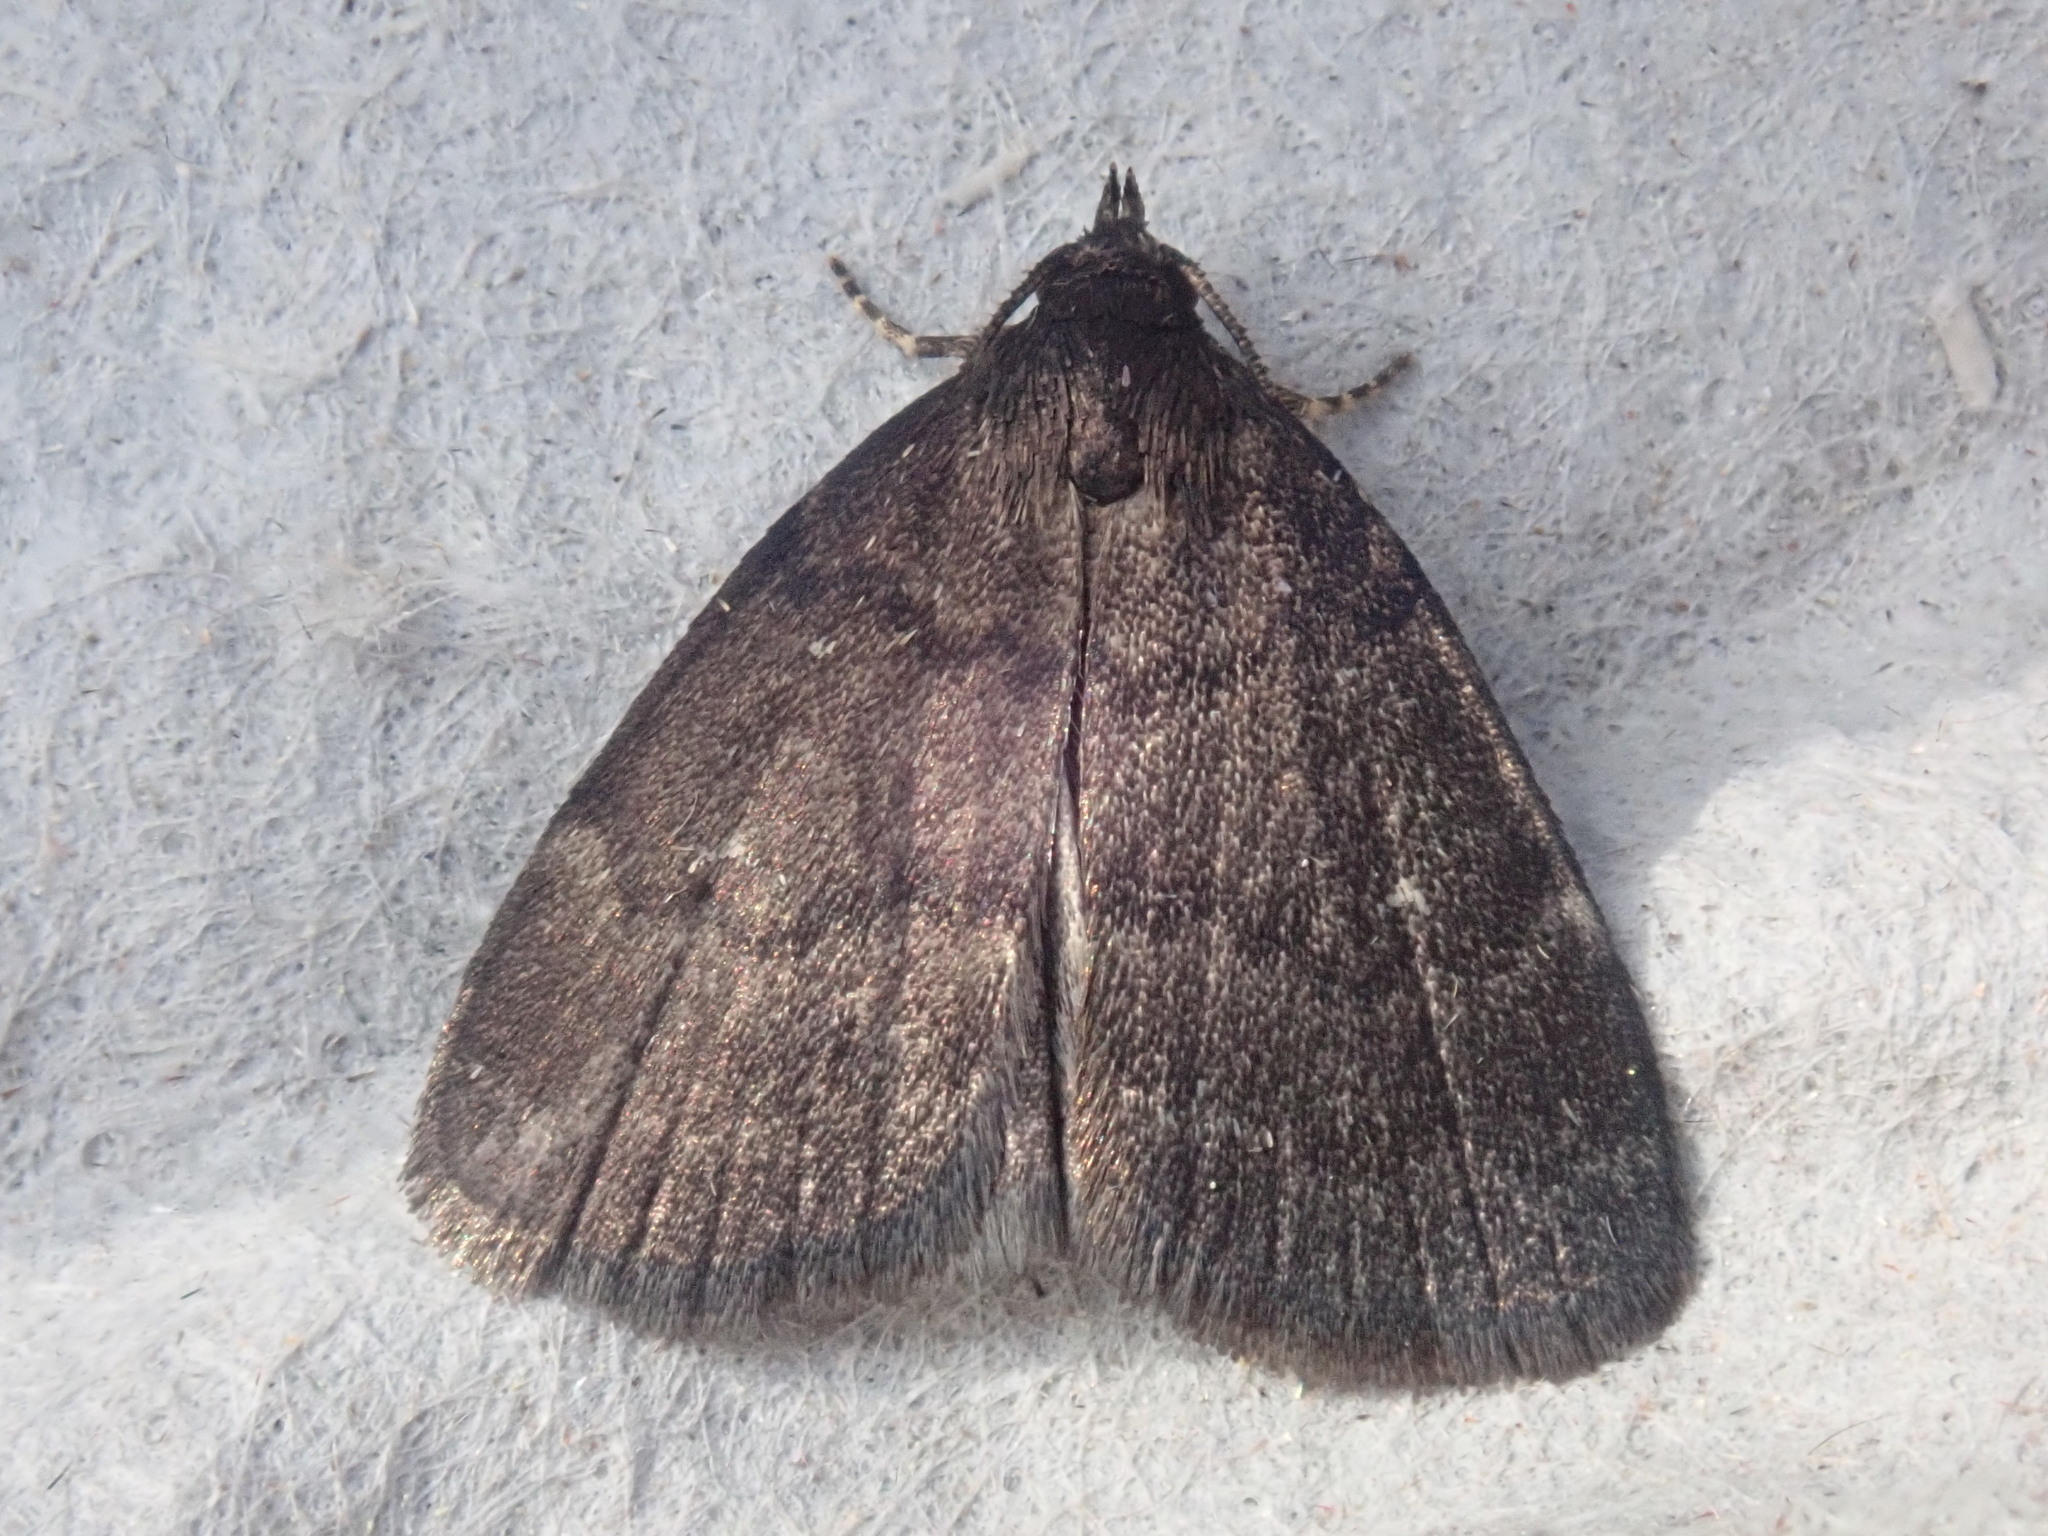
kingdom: Animalia
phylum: Arthropoda
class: Insecta
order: Lepidoptera
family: Erebidae
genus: Idia
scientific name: Idia rotundalis
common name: Rotund idia moth
